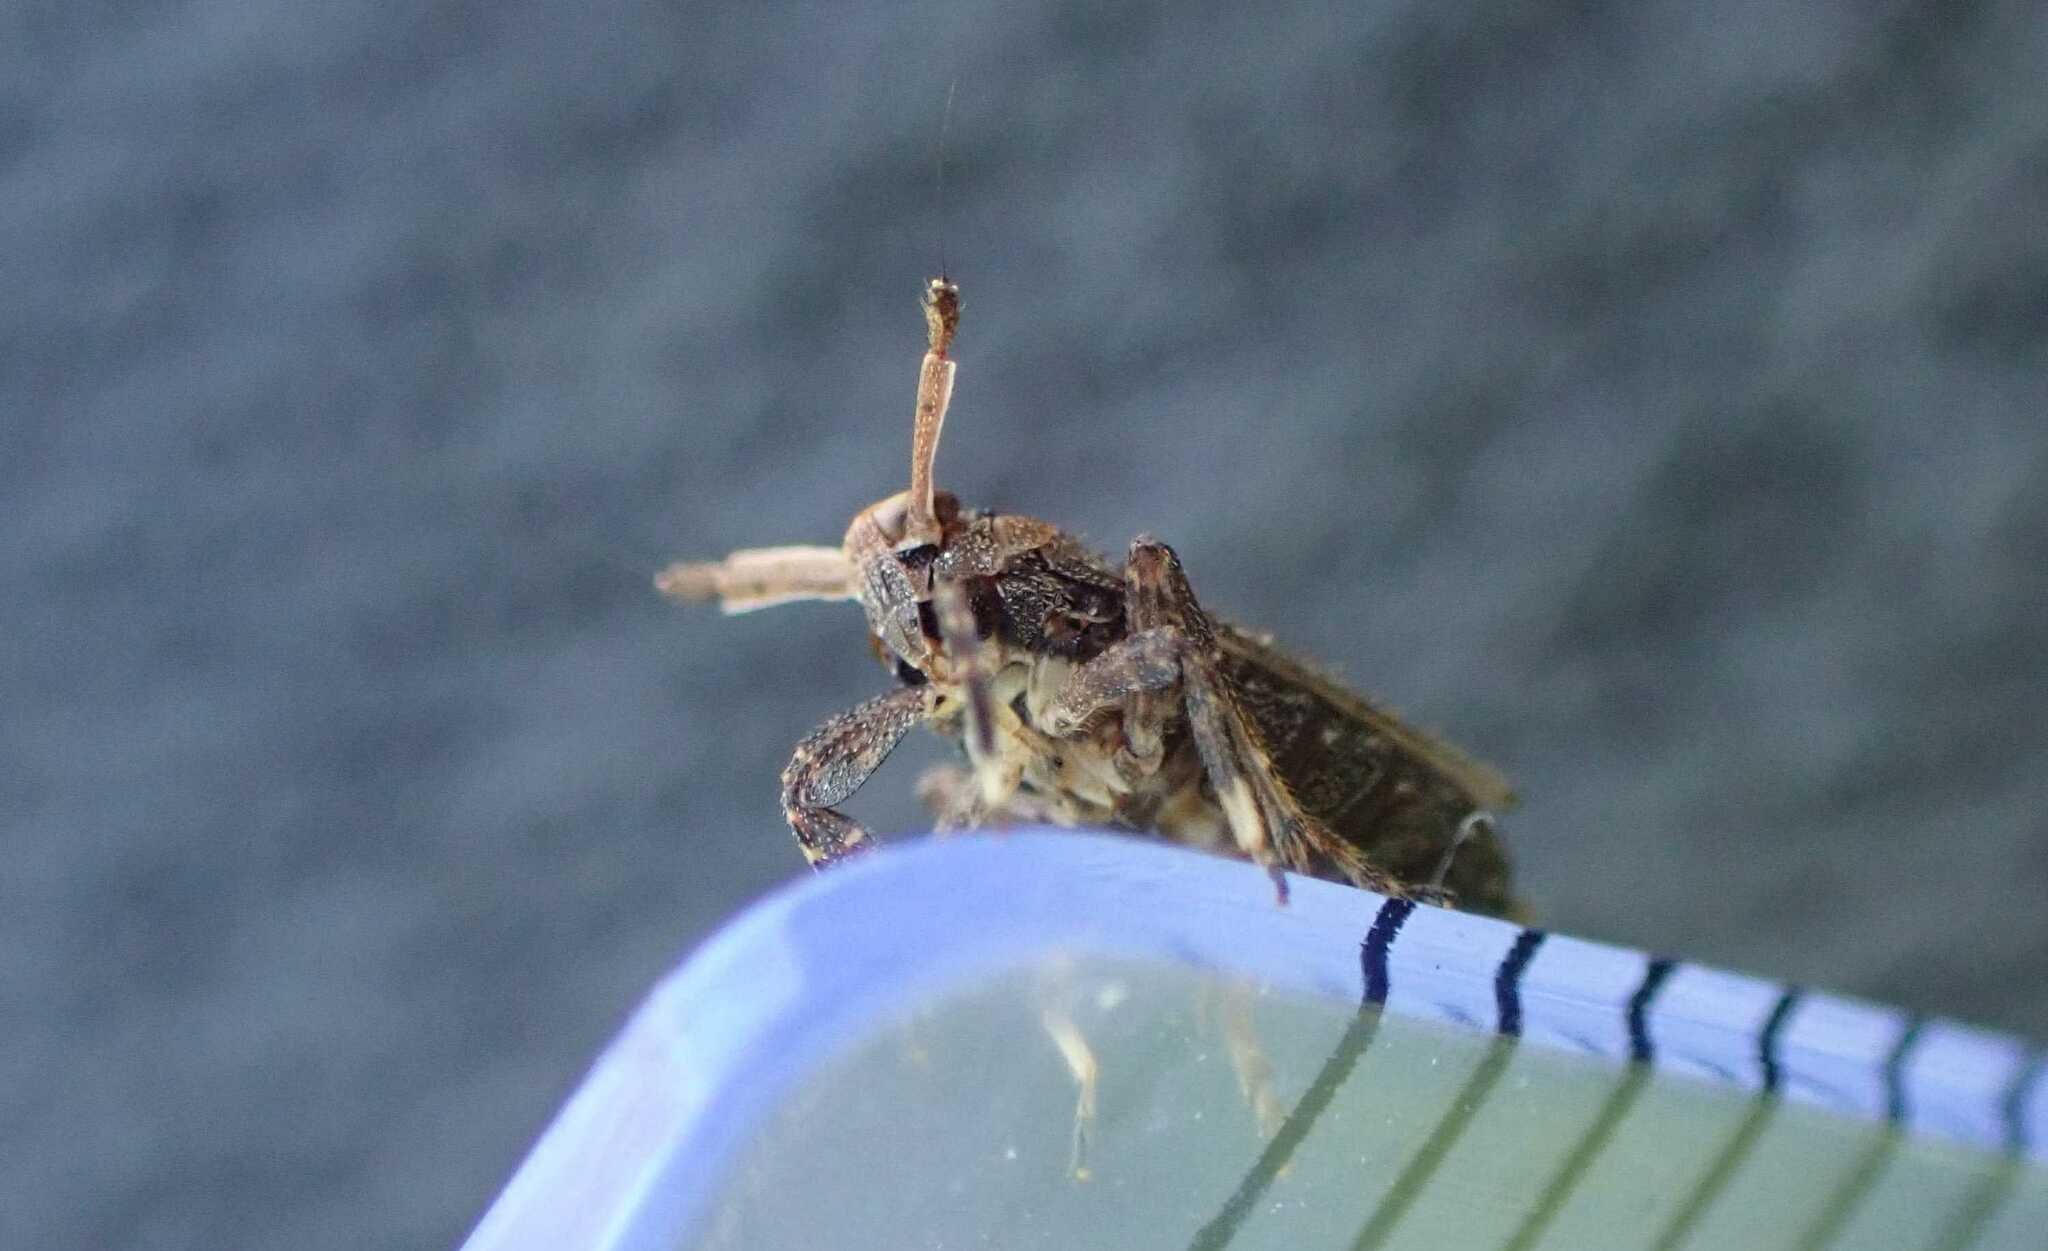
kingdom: Animalia
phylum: Arthropoda
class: Insecta
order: Hemiptera
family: Delphacidae
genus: Asiraca
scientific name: Asiraca clavicornis
